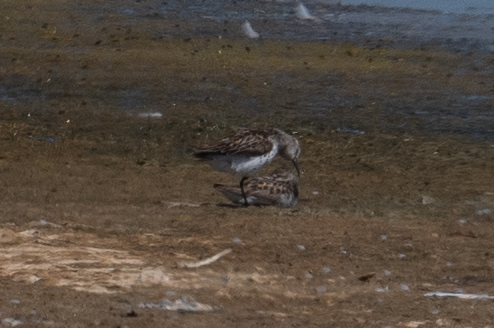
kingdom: Animalia
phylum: Chordata
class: Aves
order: Charadriiformes
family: Scolopacidae
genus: Calidris
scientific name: Calidris mauri
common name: Western sandpiper
